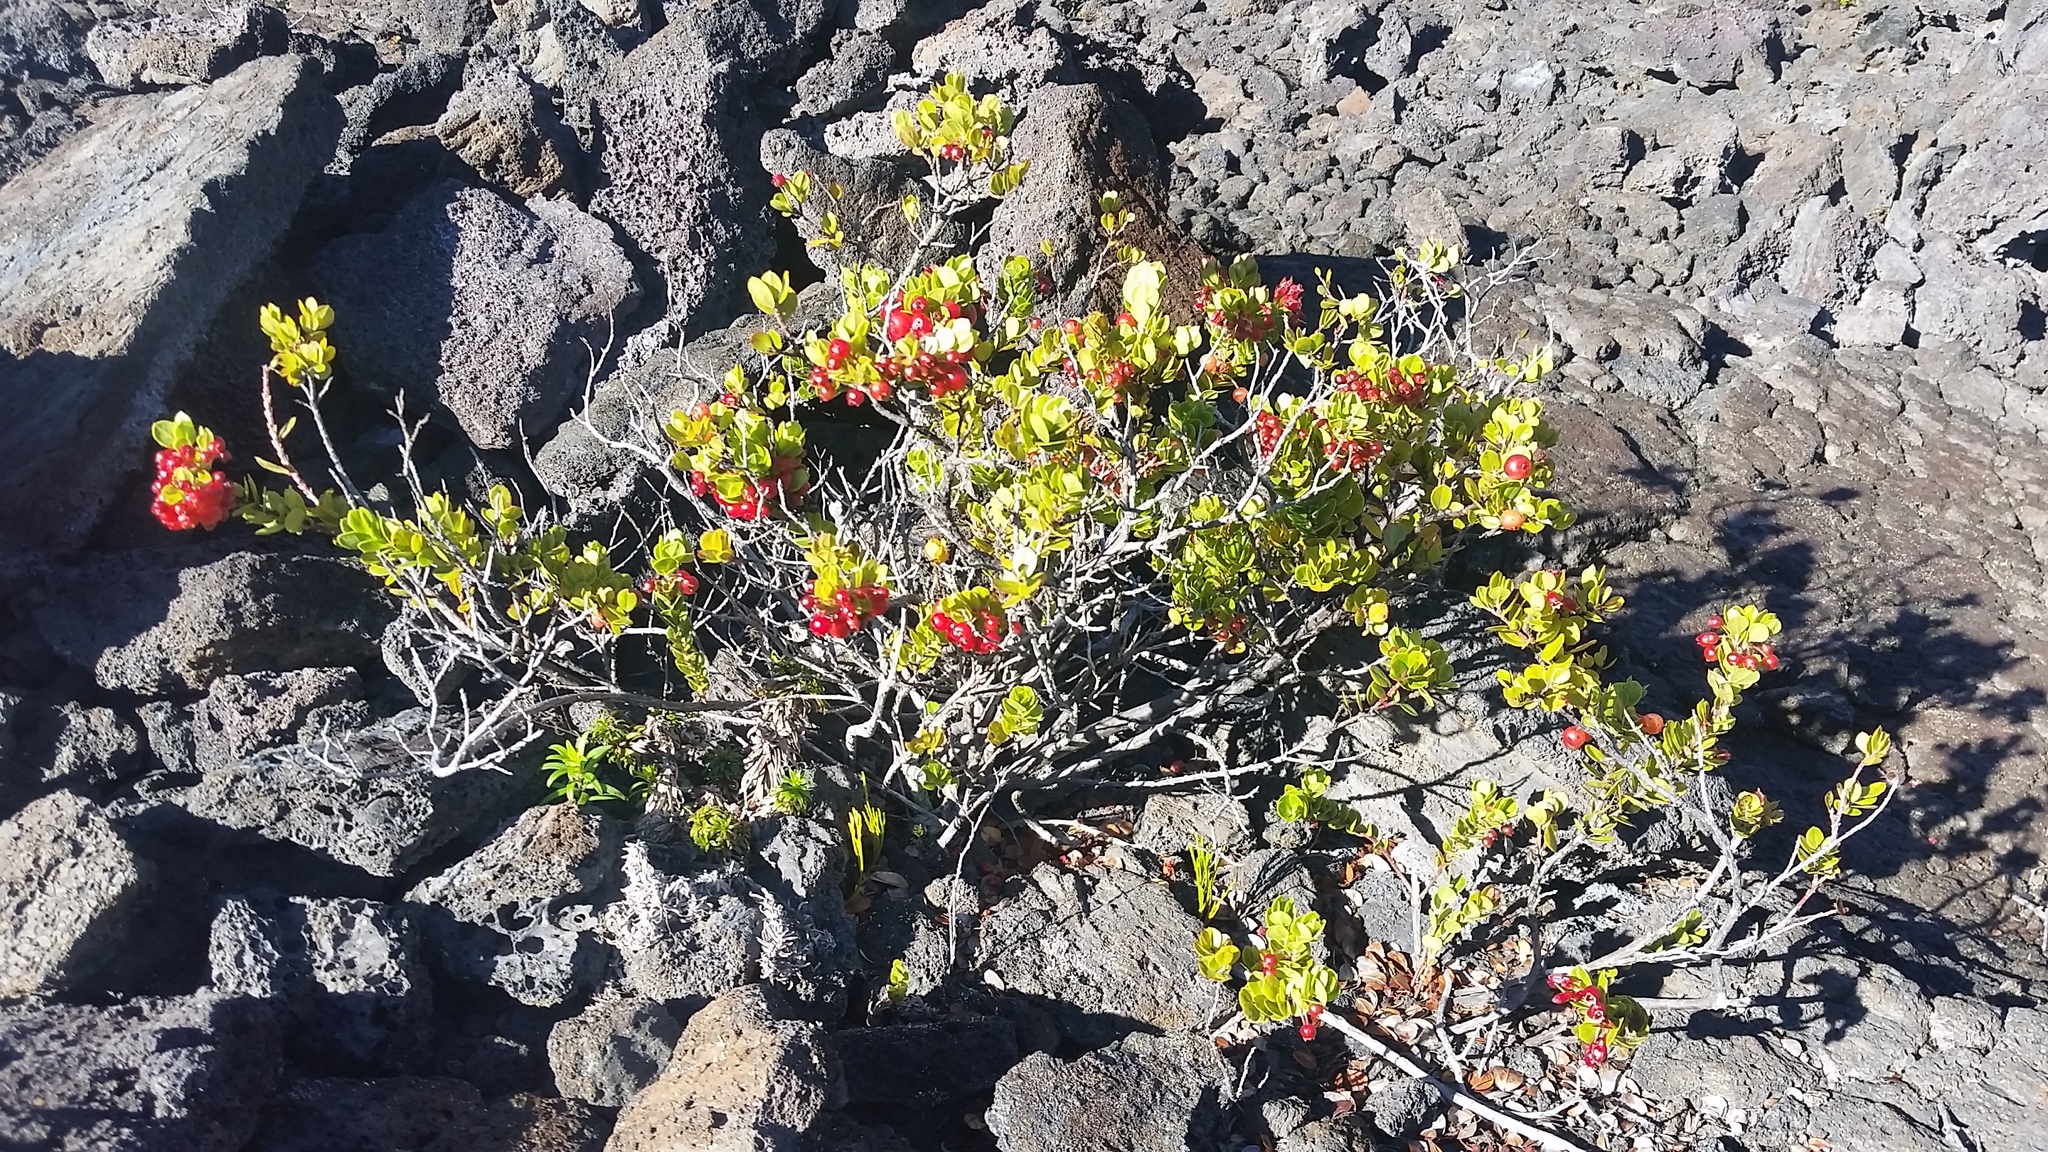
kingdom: Plantae
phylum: Tracheophyta
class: Magnoliopsida
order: Ericales
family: Ericaceae
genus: Vaccinium
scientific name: Vaccinium reticulatum
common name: Ohelo
